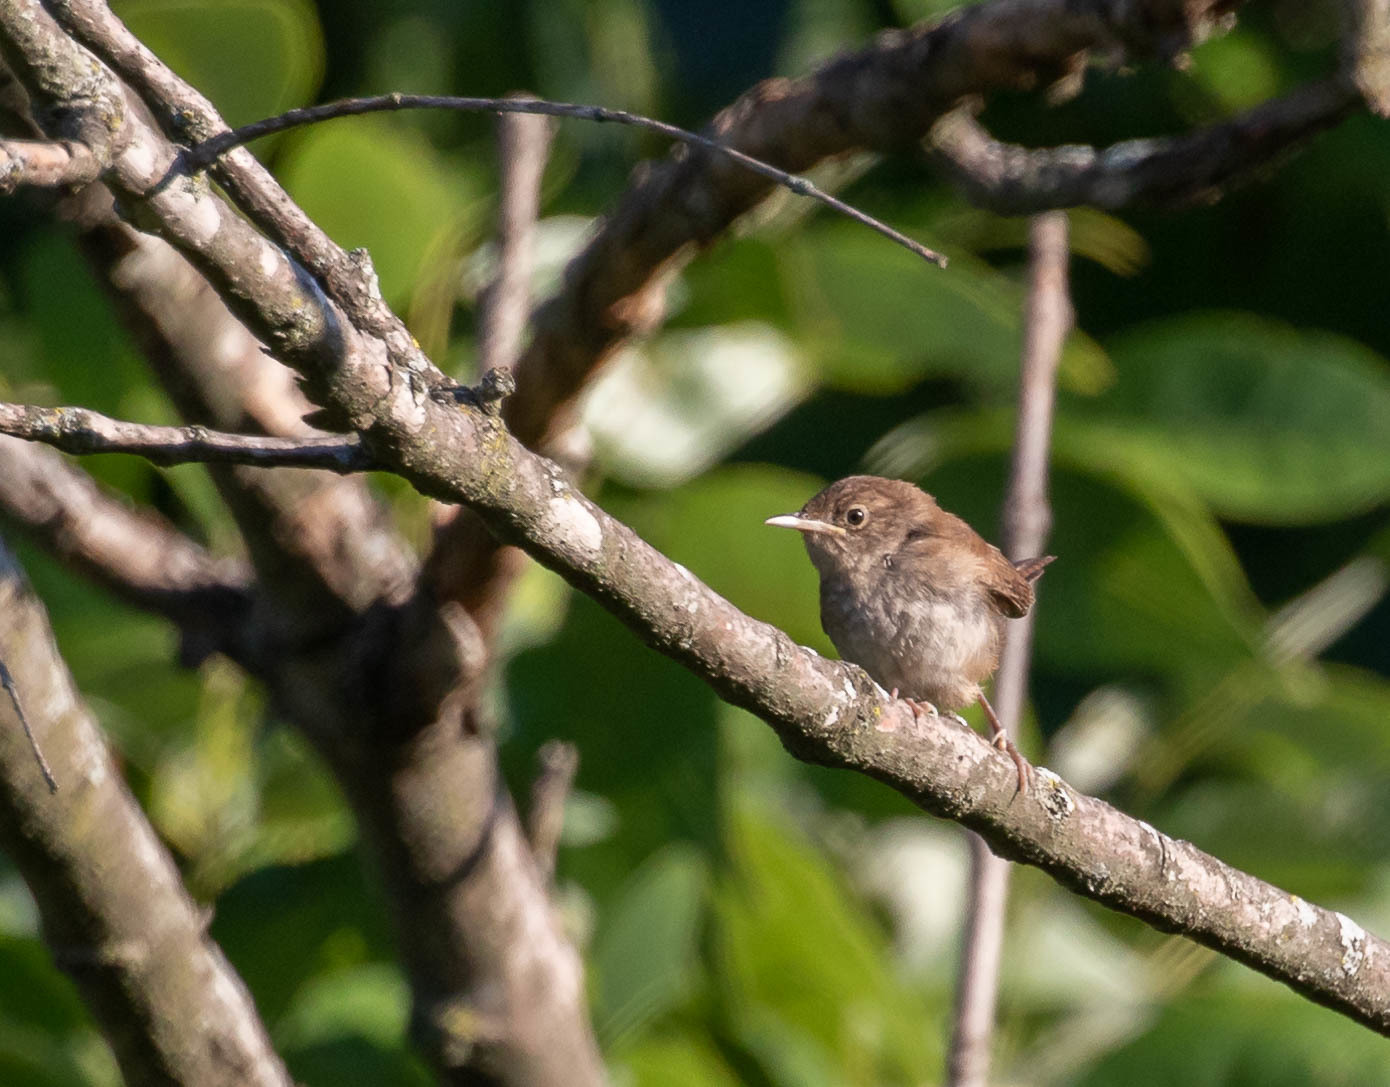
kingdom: Animalia
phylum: Chordata
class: Aves
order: Passeriformes
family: Troglodytidae
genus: Troglodytes
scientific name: Troglodytes aedon
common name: House wren
